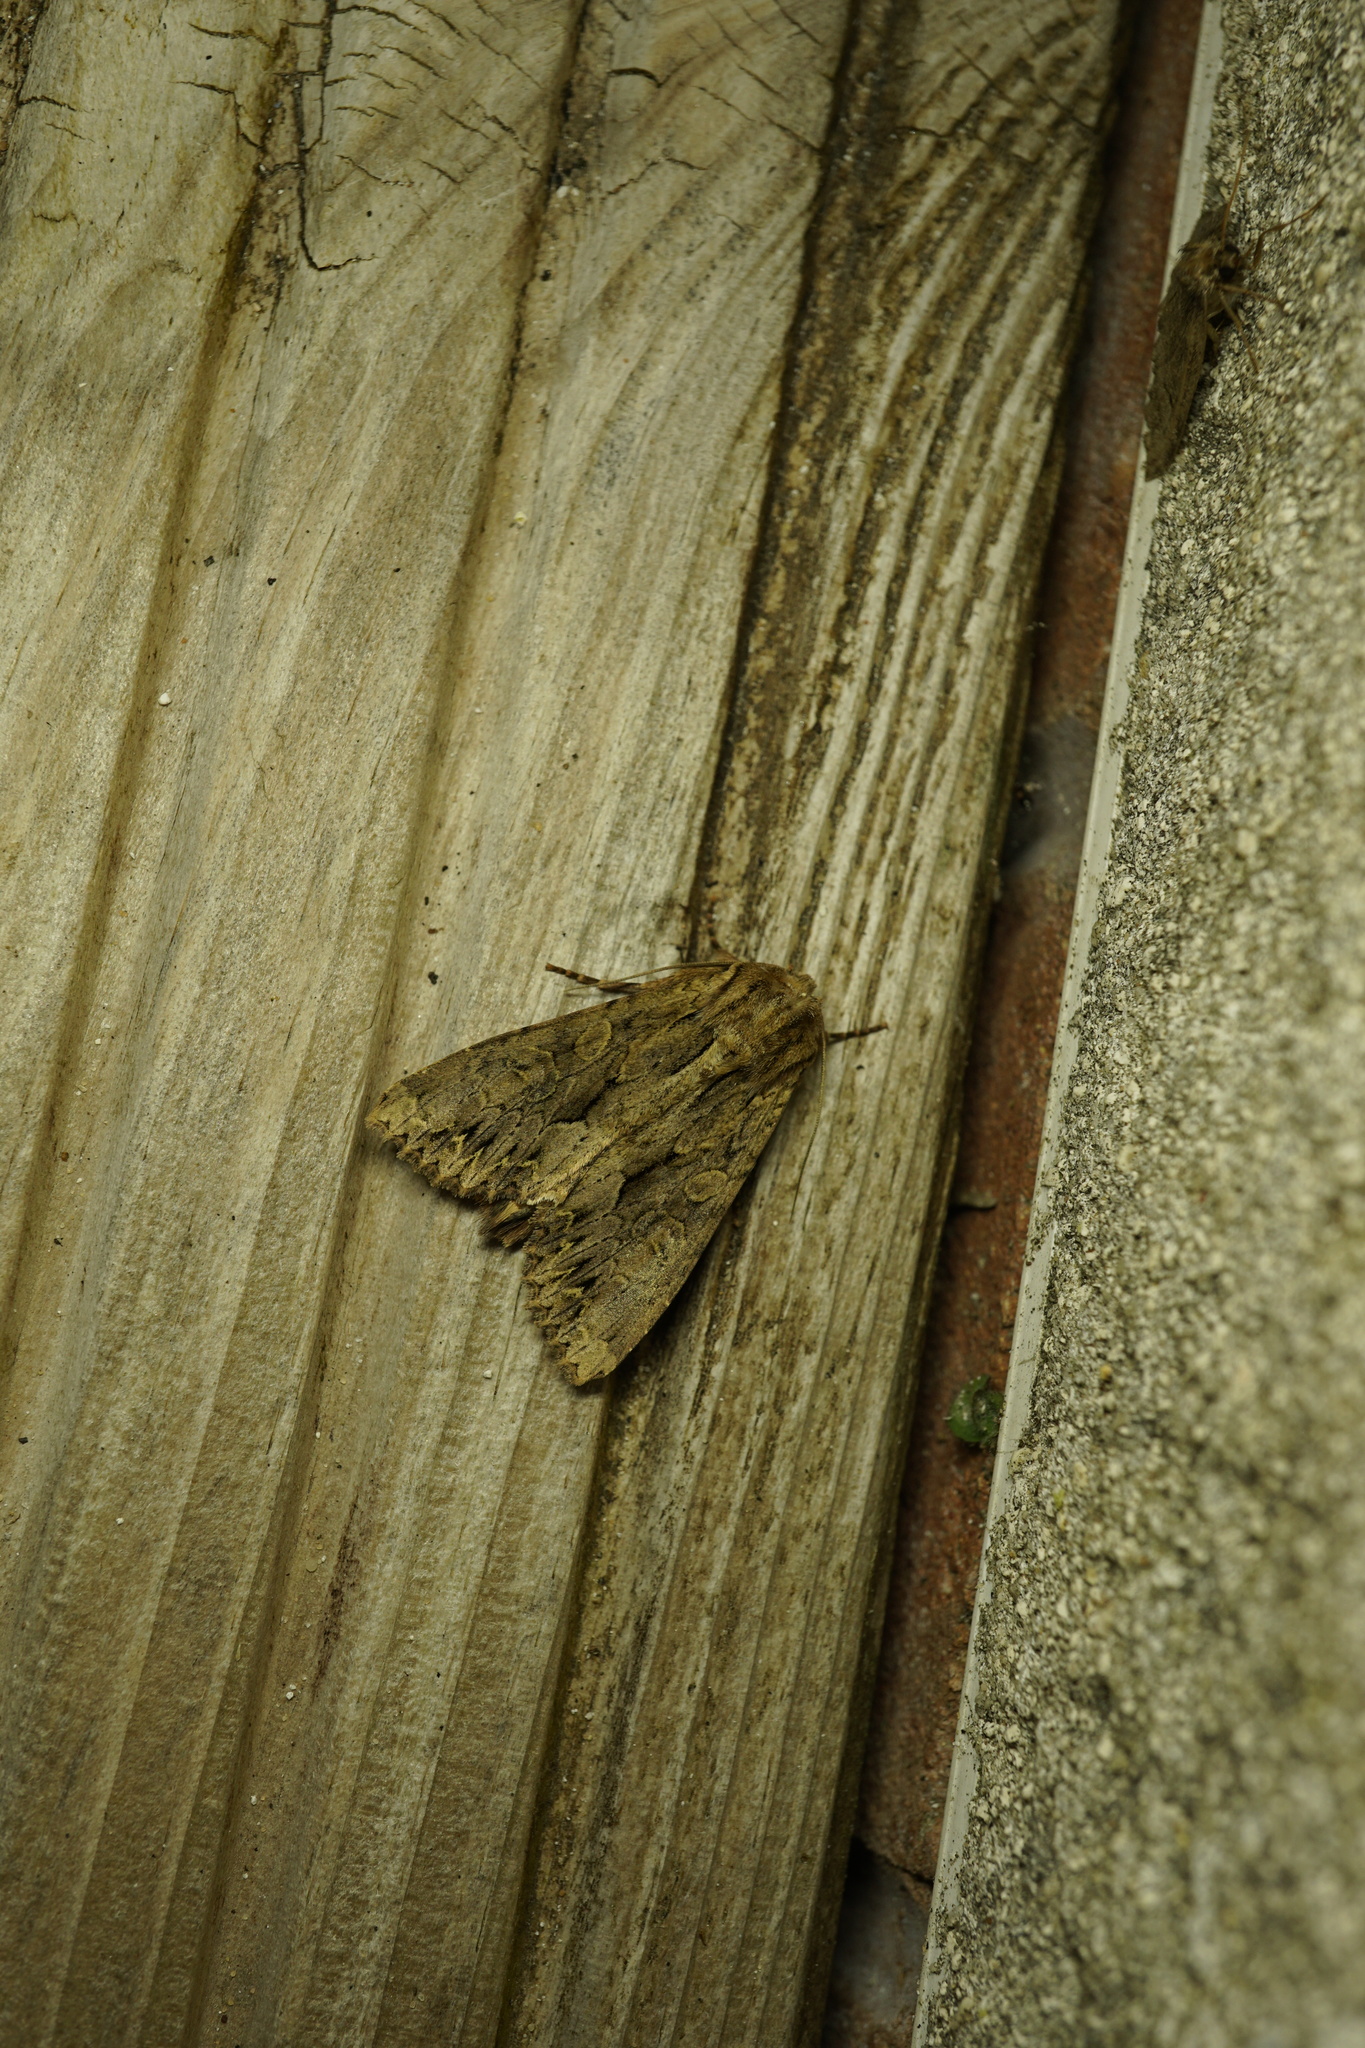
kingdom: Animalia
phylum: Arthropoda
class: Insecta
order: Lepidoptera
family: Noctuidae
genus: Apamea
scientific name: Apamea monoglypha
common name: Dark arches
